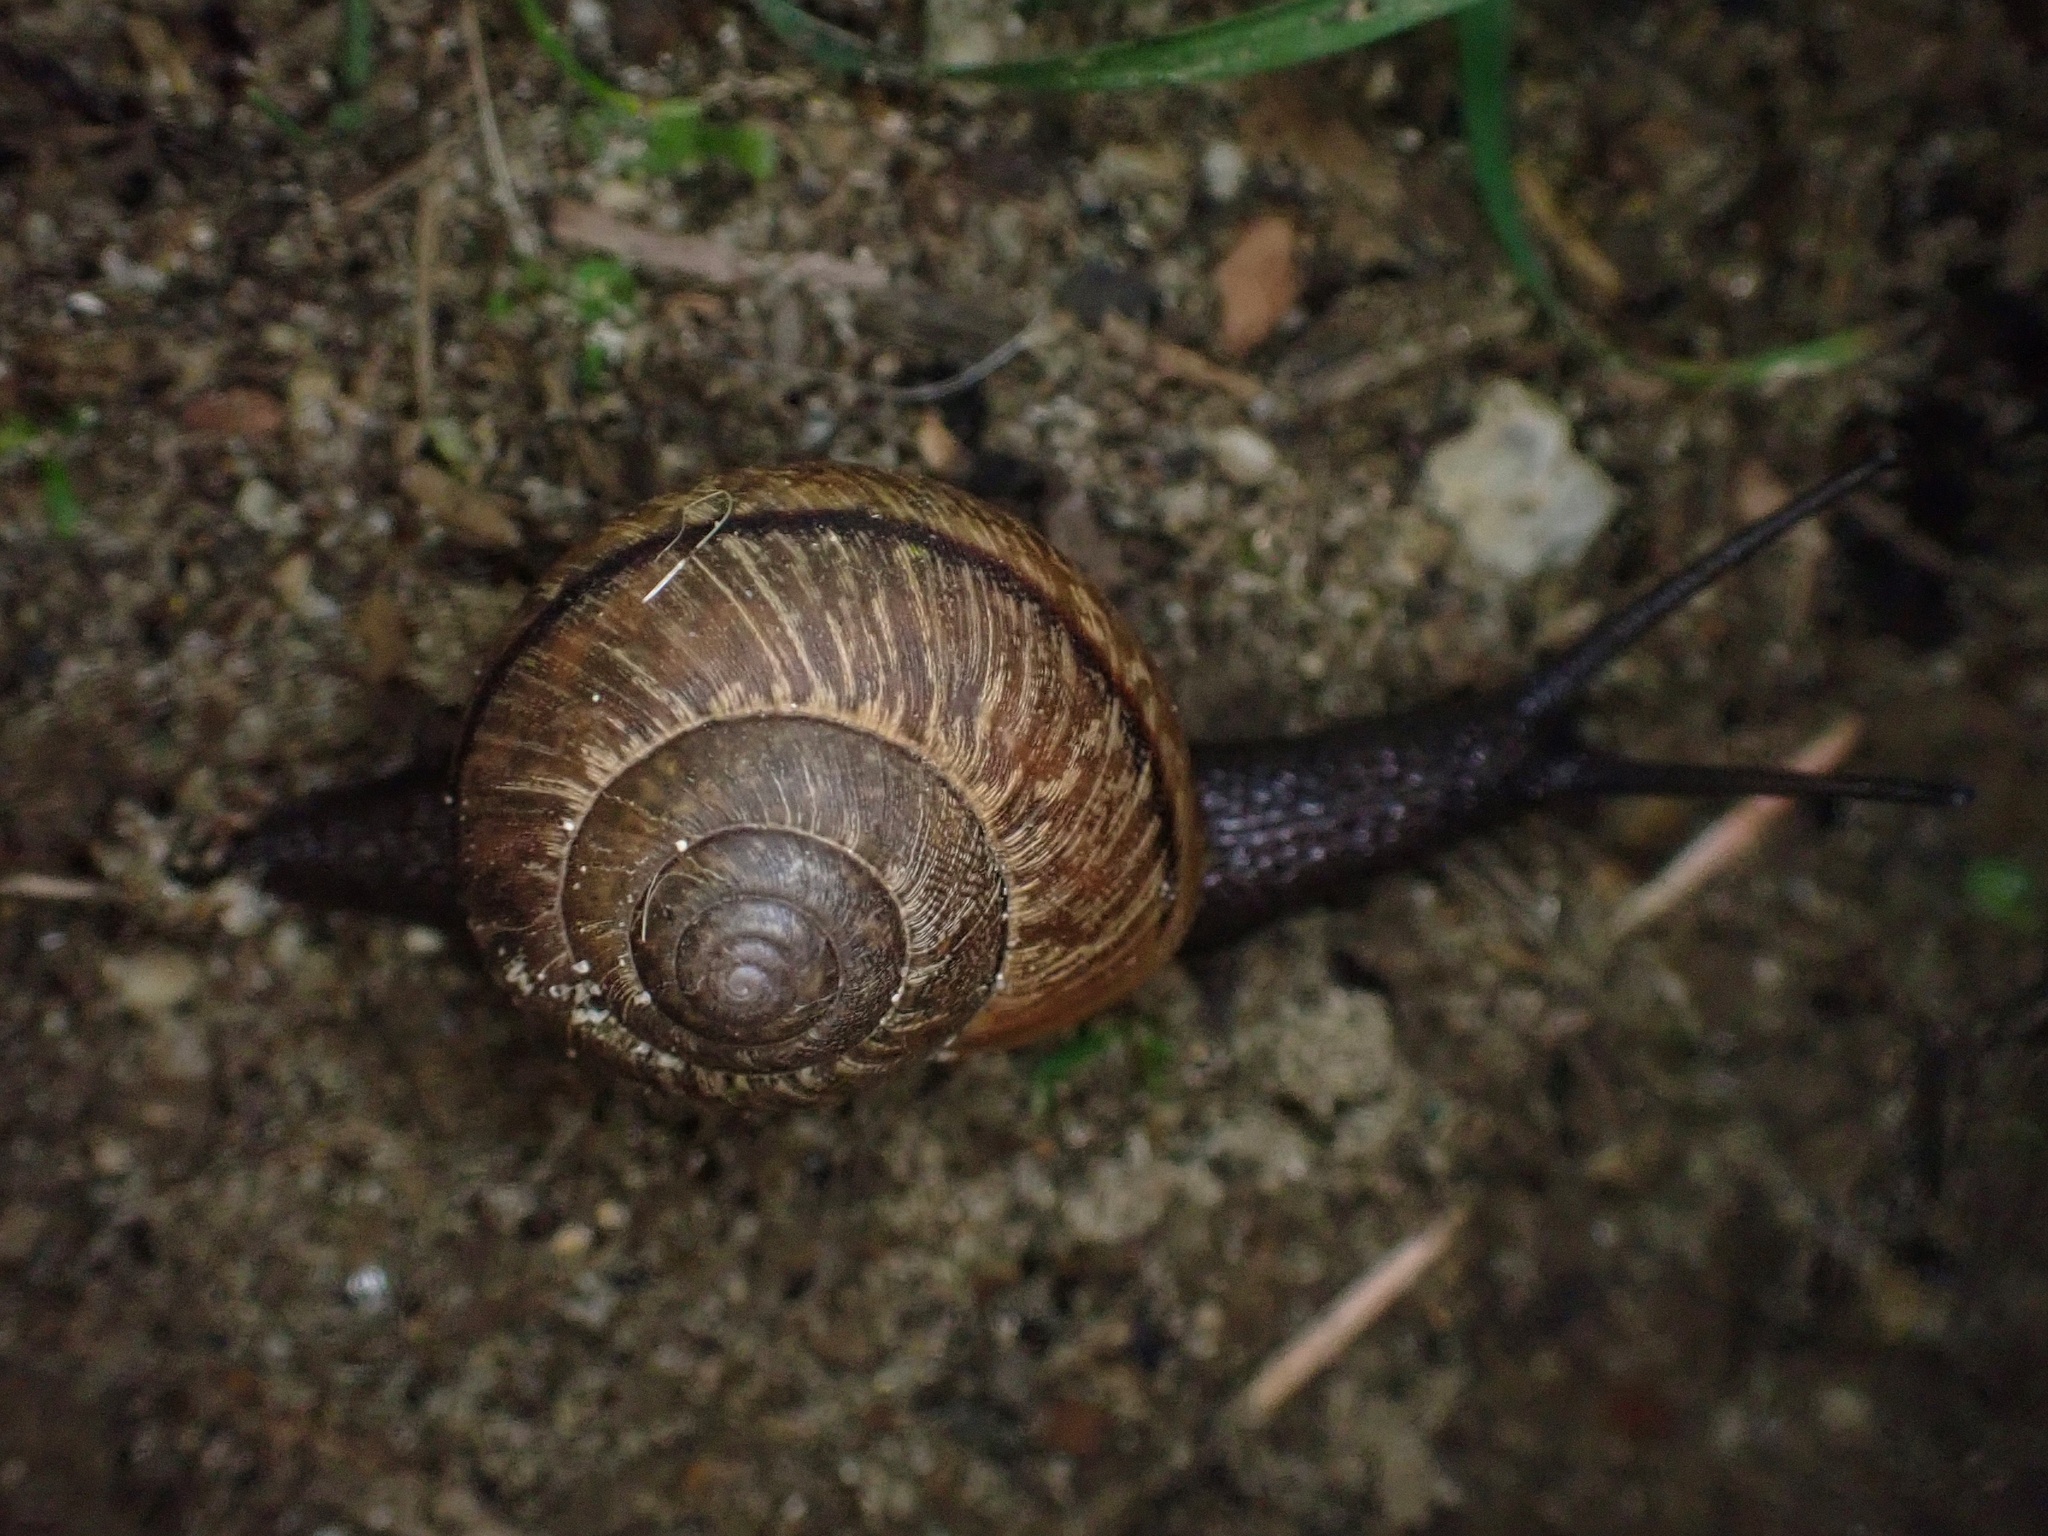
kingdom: Animalia
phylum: Mollusca
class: Gastropoda
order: Stylommatophora
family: Xanthonychidae
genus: Helminthoglypta
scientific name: Helminthoglypta nickliniana
